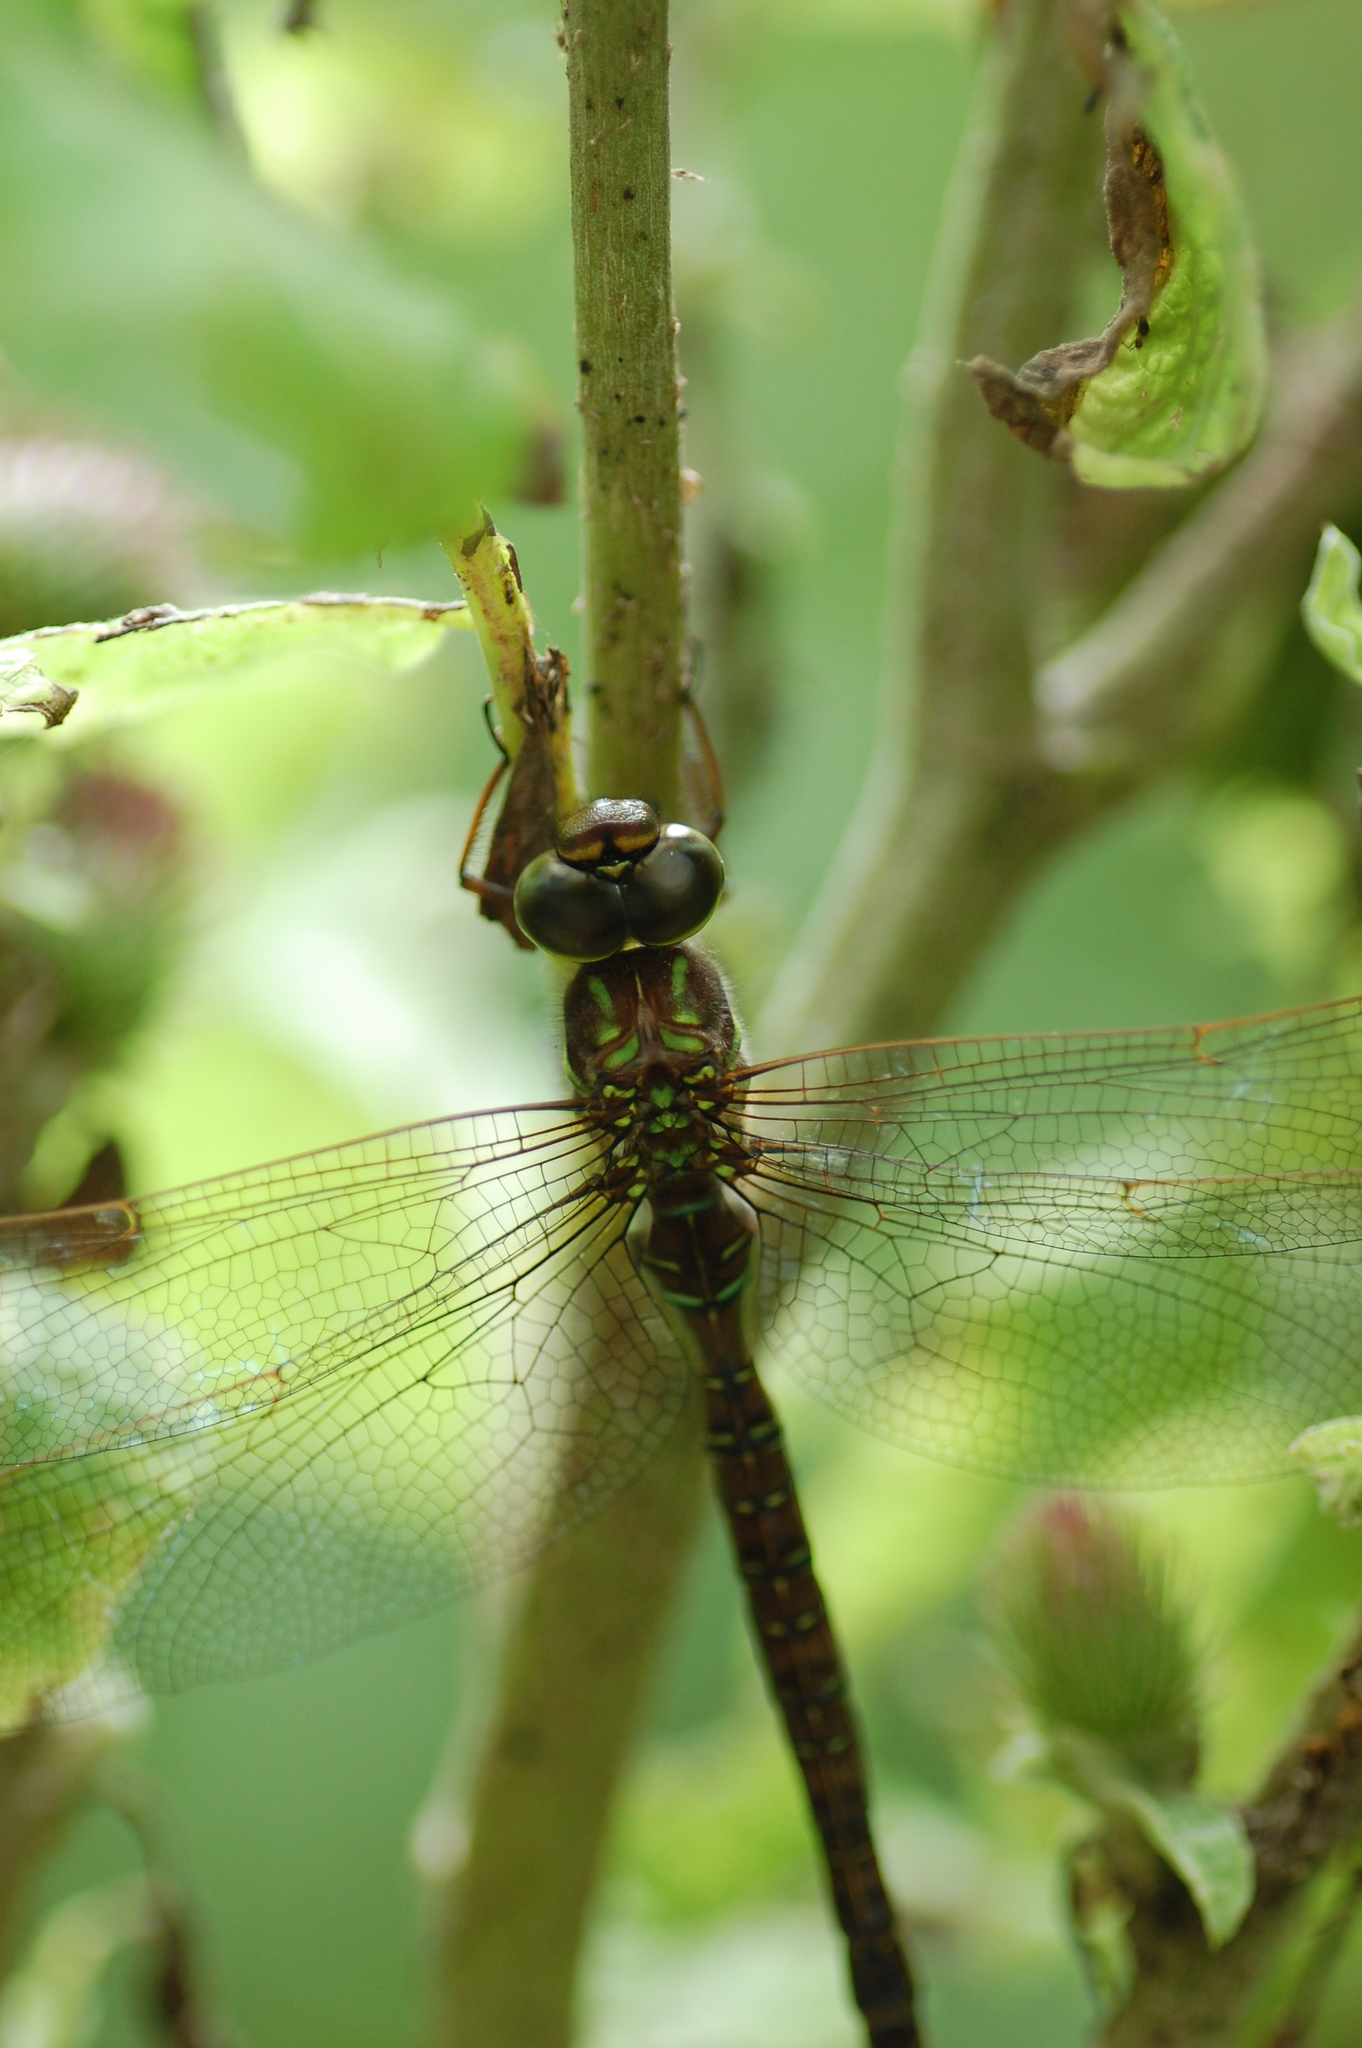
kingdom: Animalia
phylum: Arthropoda
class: Insecta
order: Odonata
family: Aeshnidae
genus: Aeshna
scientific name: Aeshna umbrosa
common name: Shadow darner
